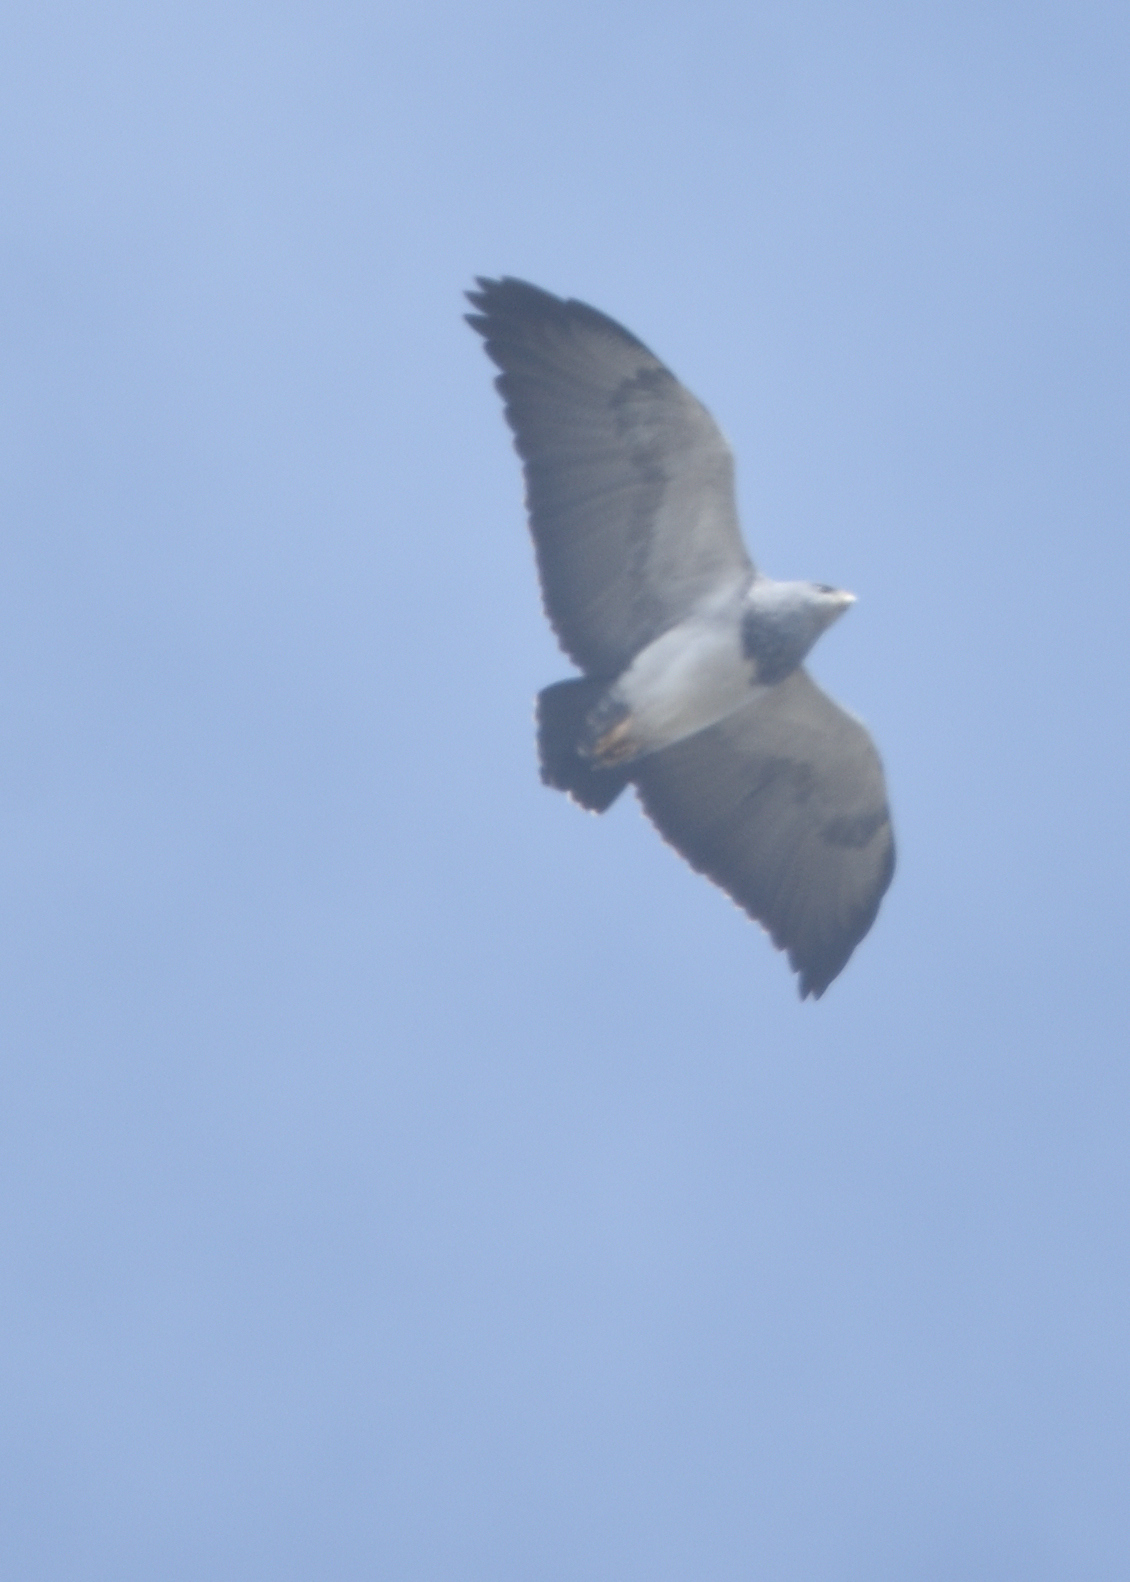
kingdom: Animalia
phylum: Chordata
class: Aves
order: Accipitriformes
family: Accipitridae
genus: Geranoaetus
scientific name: Geranoaetus melanoleucus
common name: Black-chested buzzard-eagle
